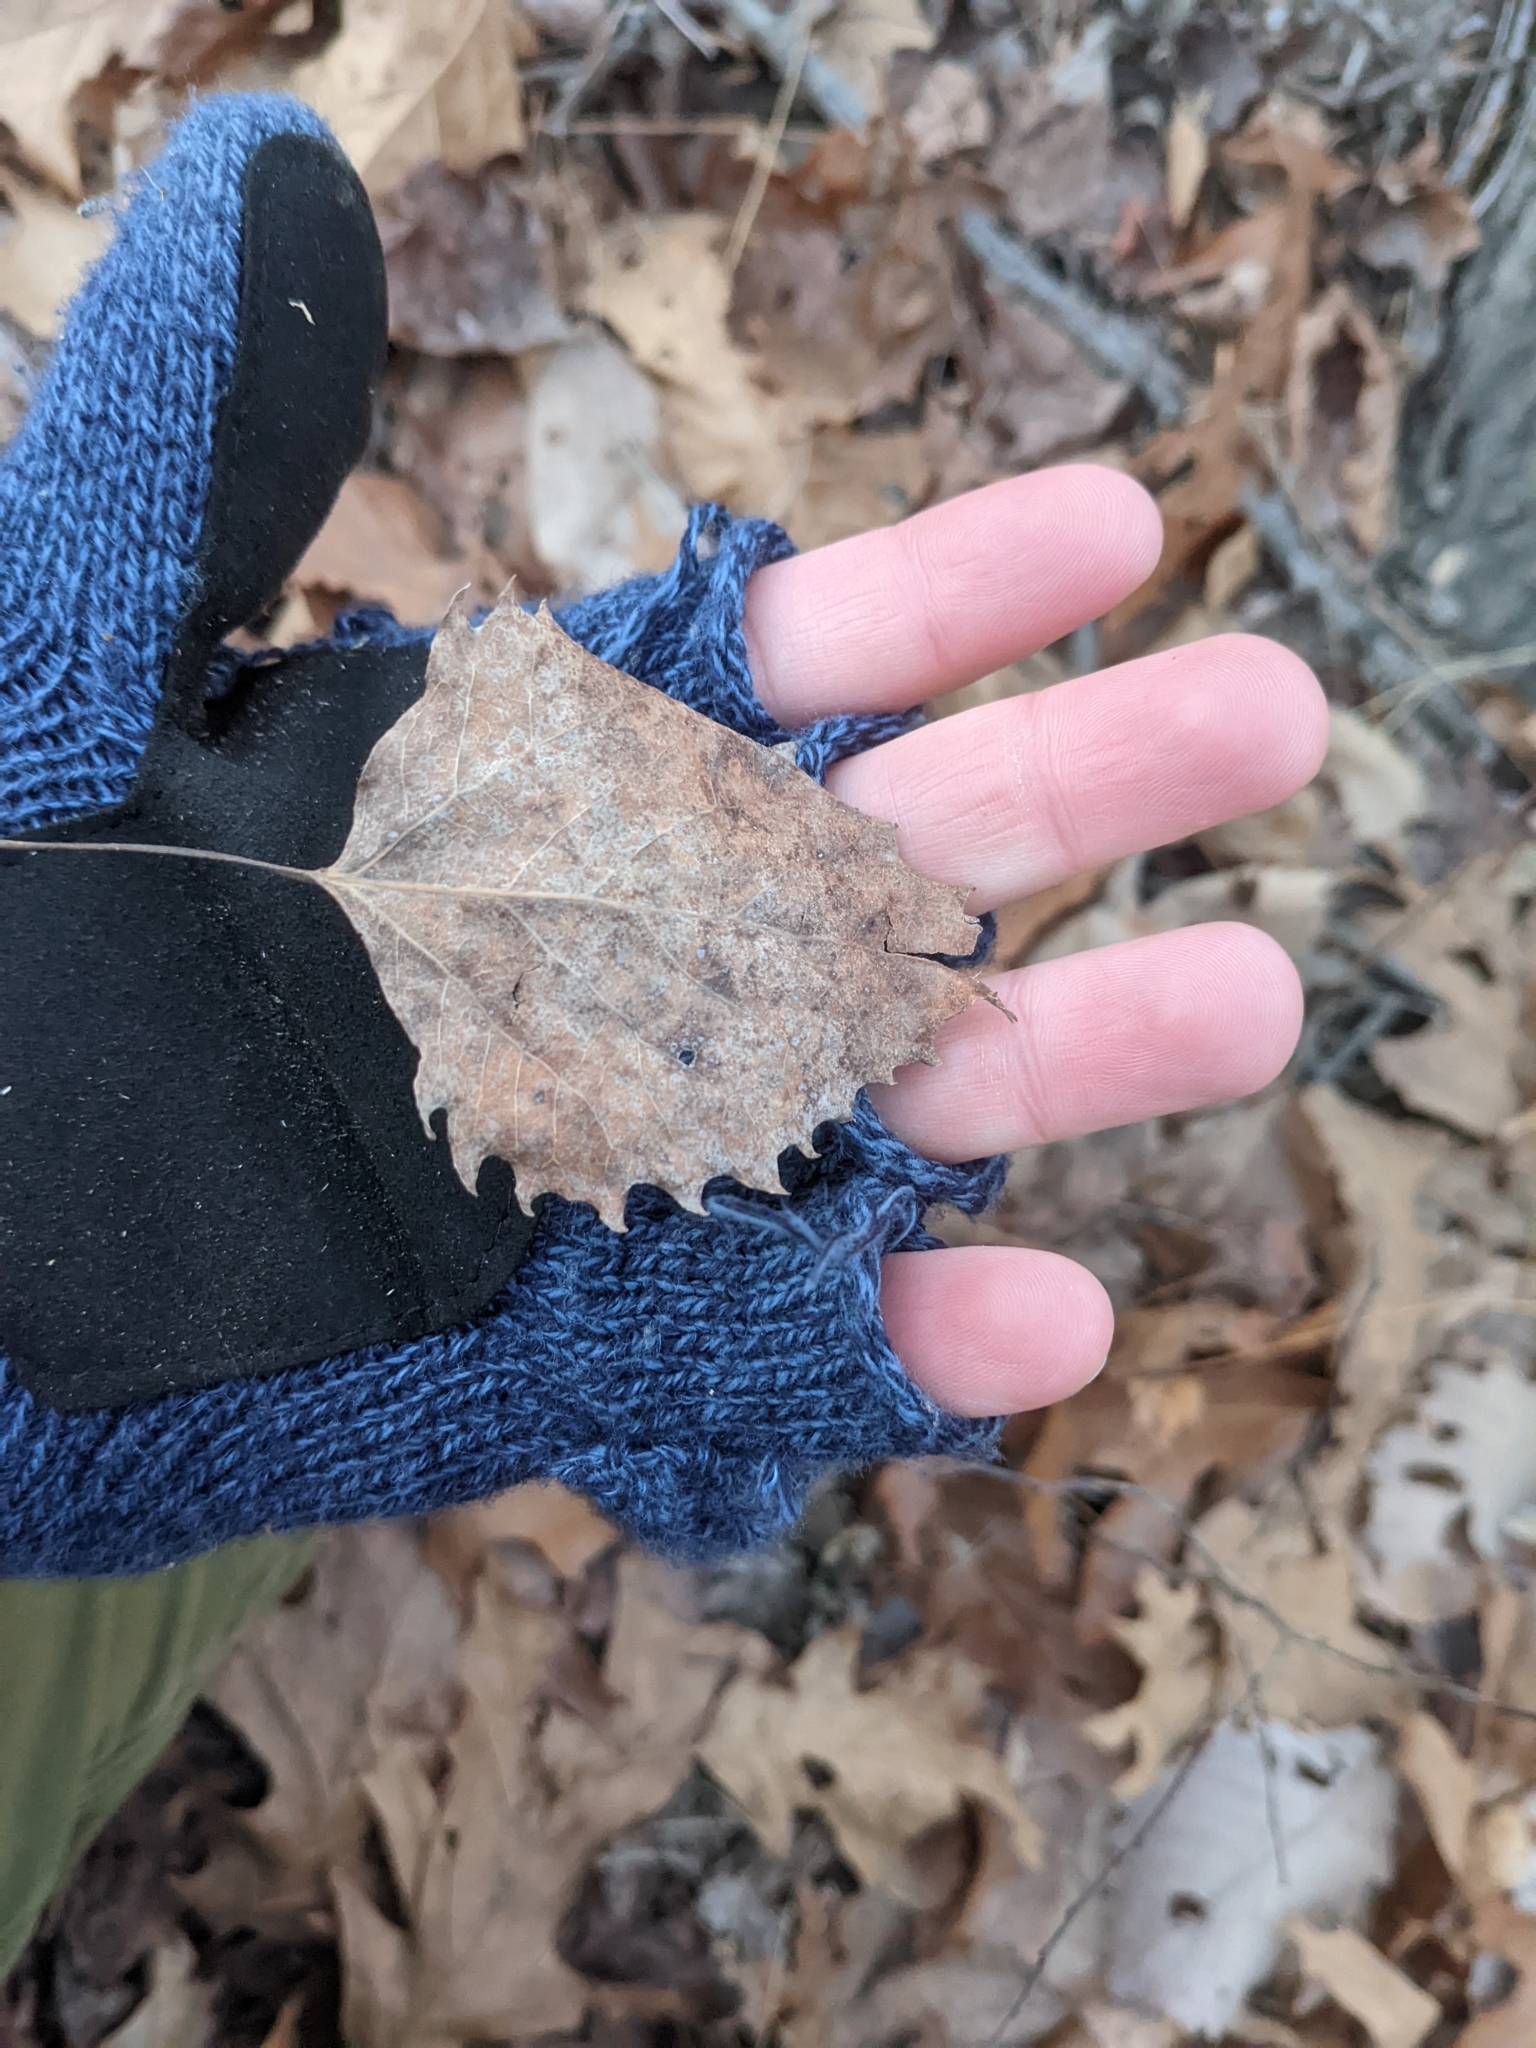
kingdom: Plantae
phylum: Tracheophyta
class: Magnoliopsida
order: Malpighiales
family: Salicaceae
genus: Populus
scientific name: Populus grandidentata
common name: Bigtooth aspen
